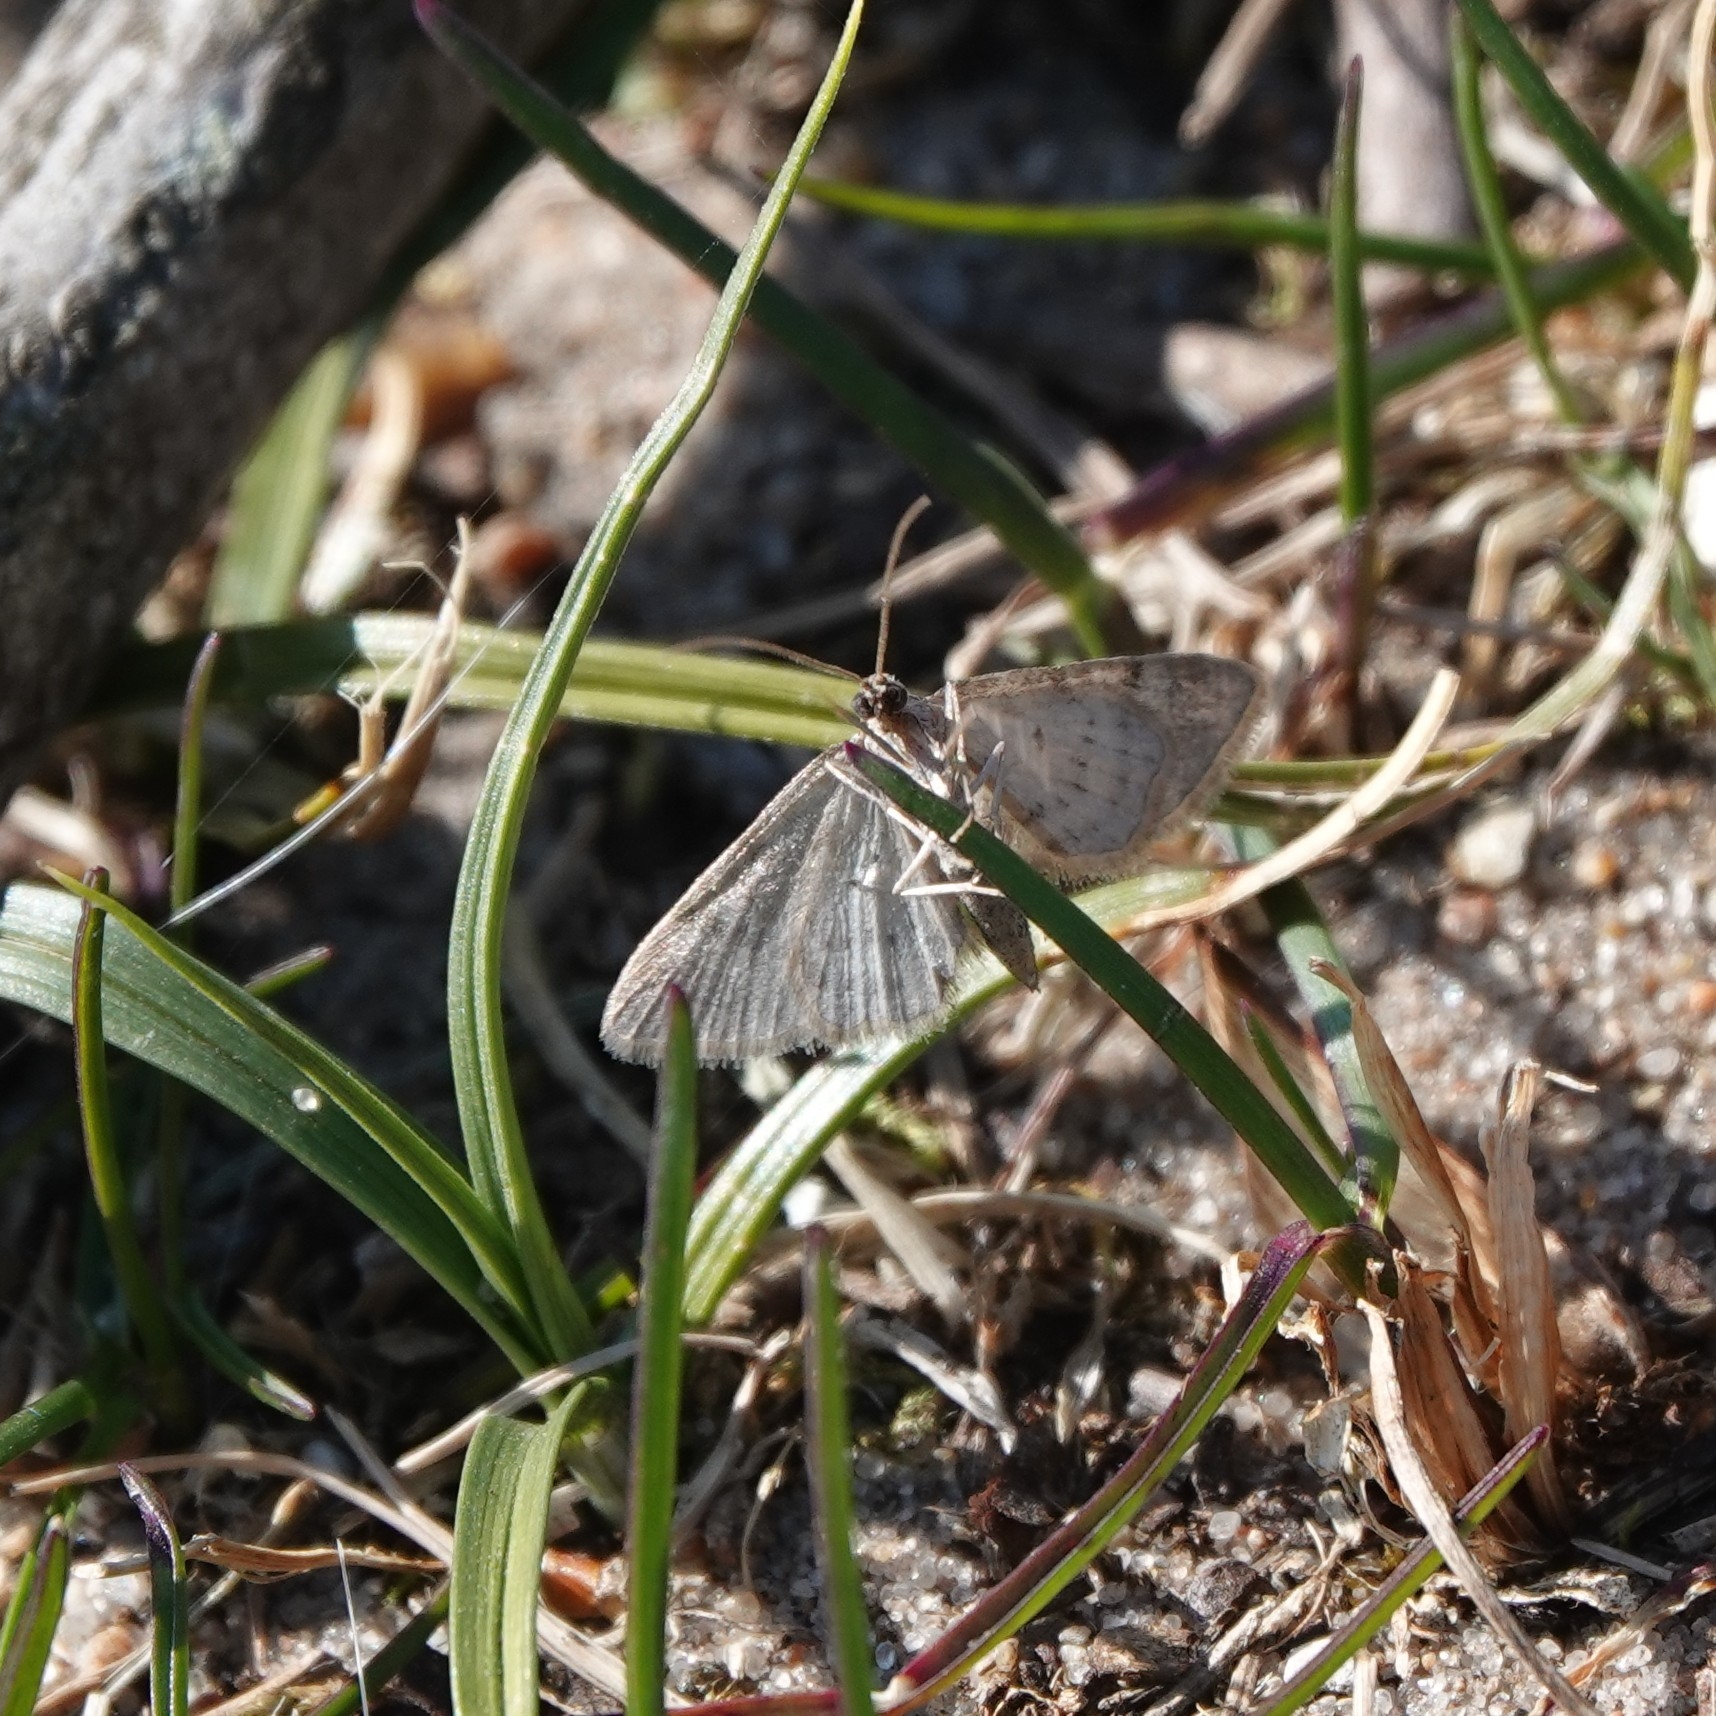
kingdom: Animalia
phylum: Arthropoda
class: Insecta
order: Lepidoptera
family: Geometridae
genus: Gymnoscelis
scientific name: Gymnoscelis rufifasciata
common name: Double-striped pug
